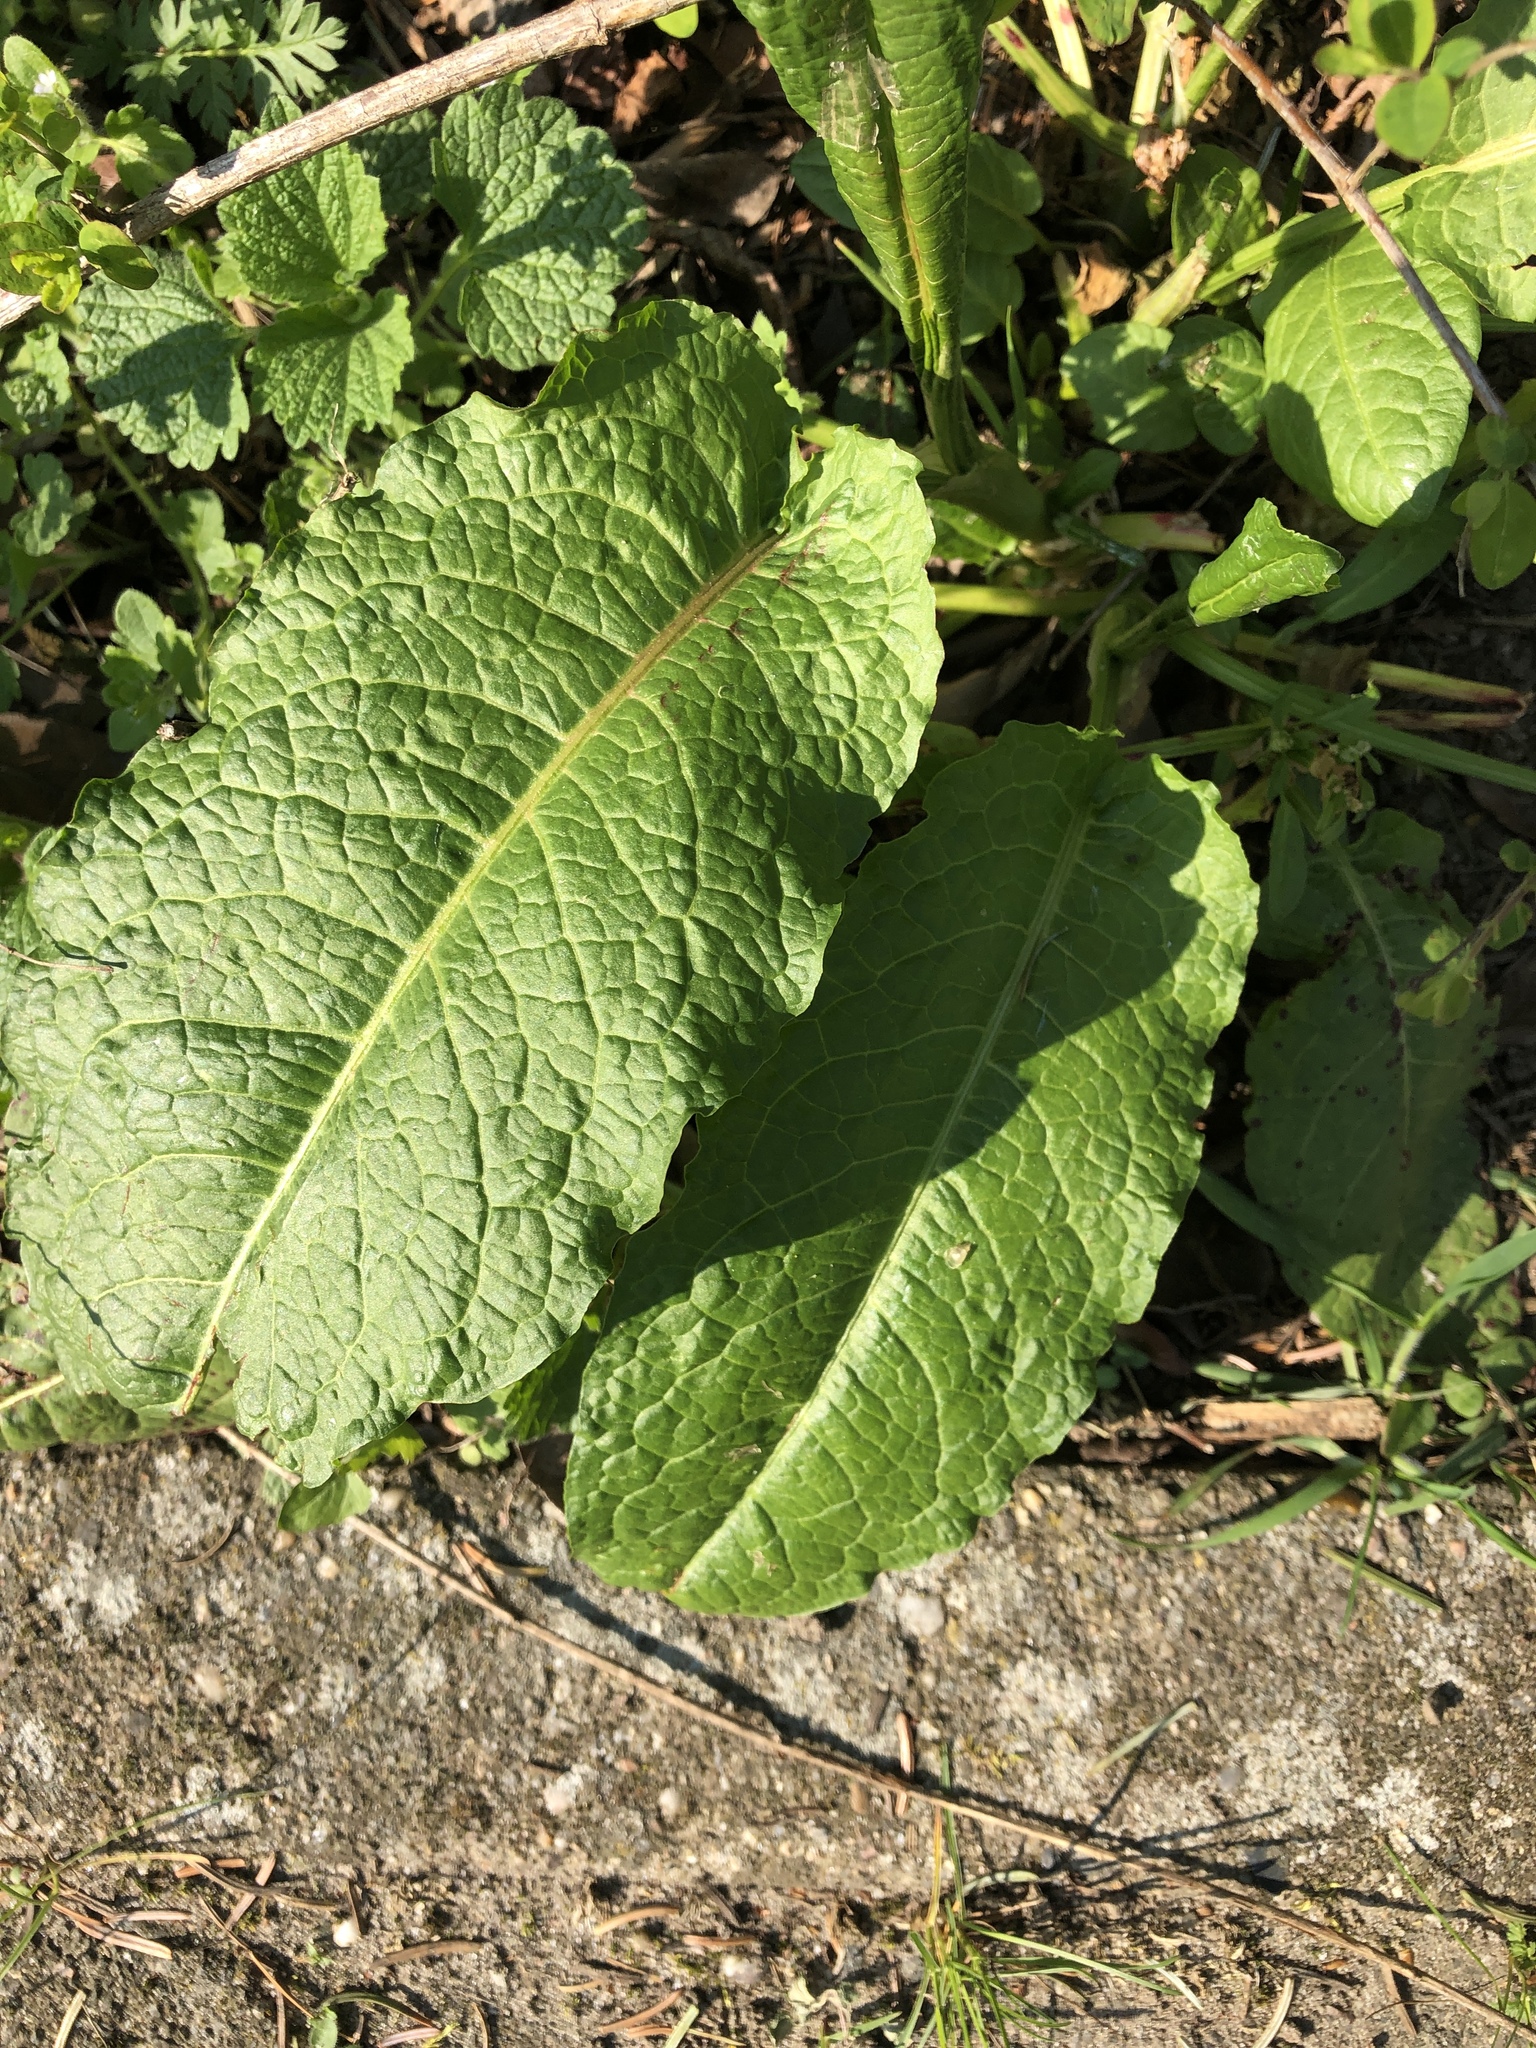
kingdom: Plantae
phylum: Tracheophyta
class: Magnoliopsida
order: Caryophyllales
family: Polygonaceae
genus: Rumex
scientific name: Rumex obtusifolius
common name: Bitter dock
